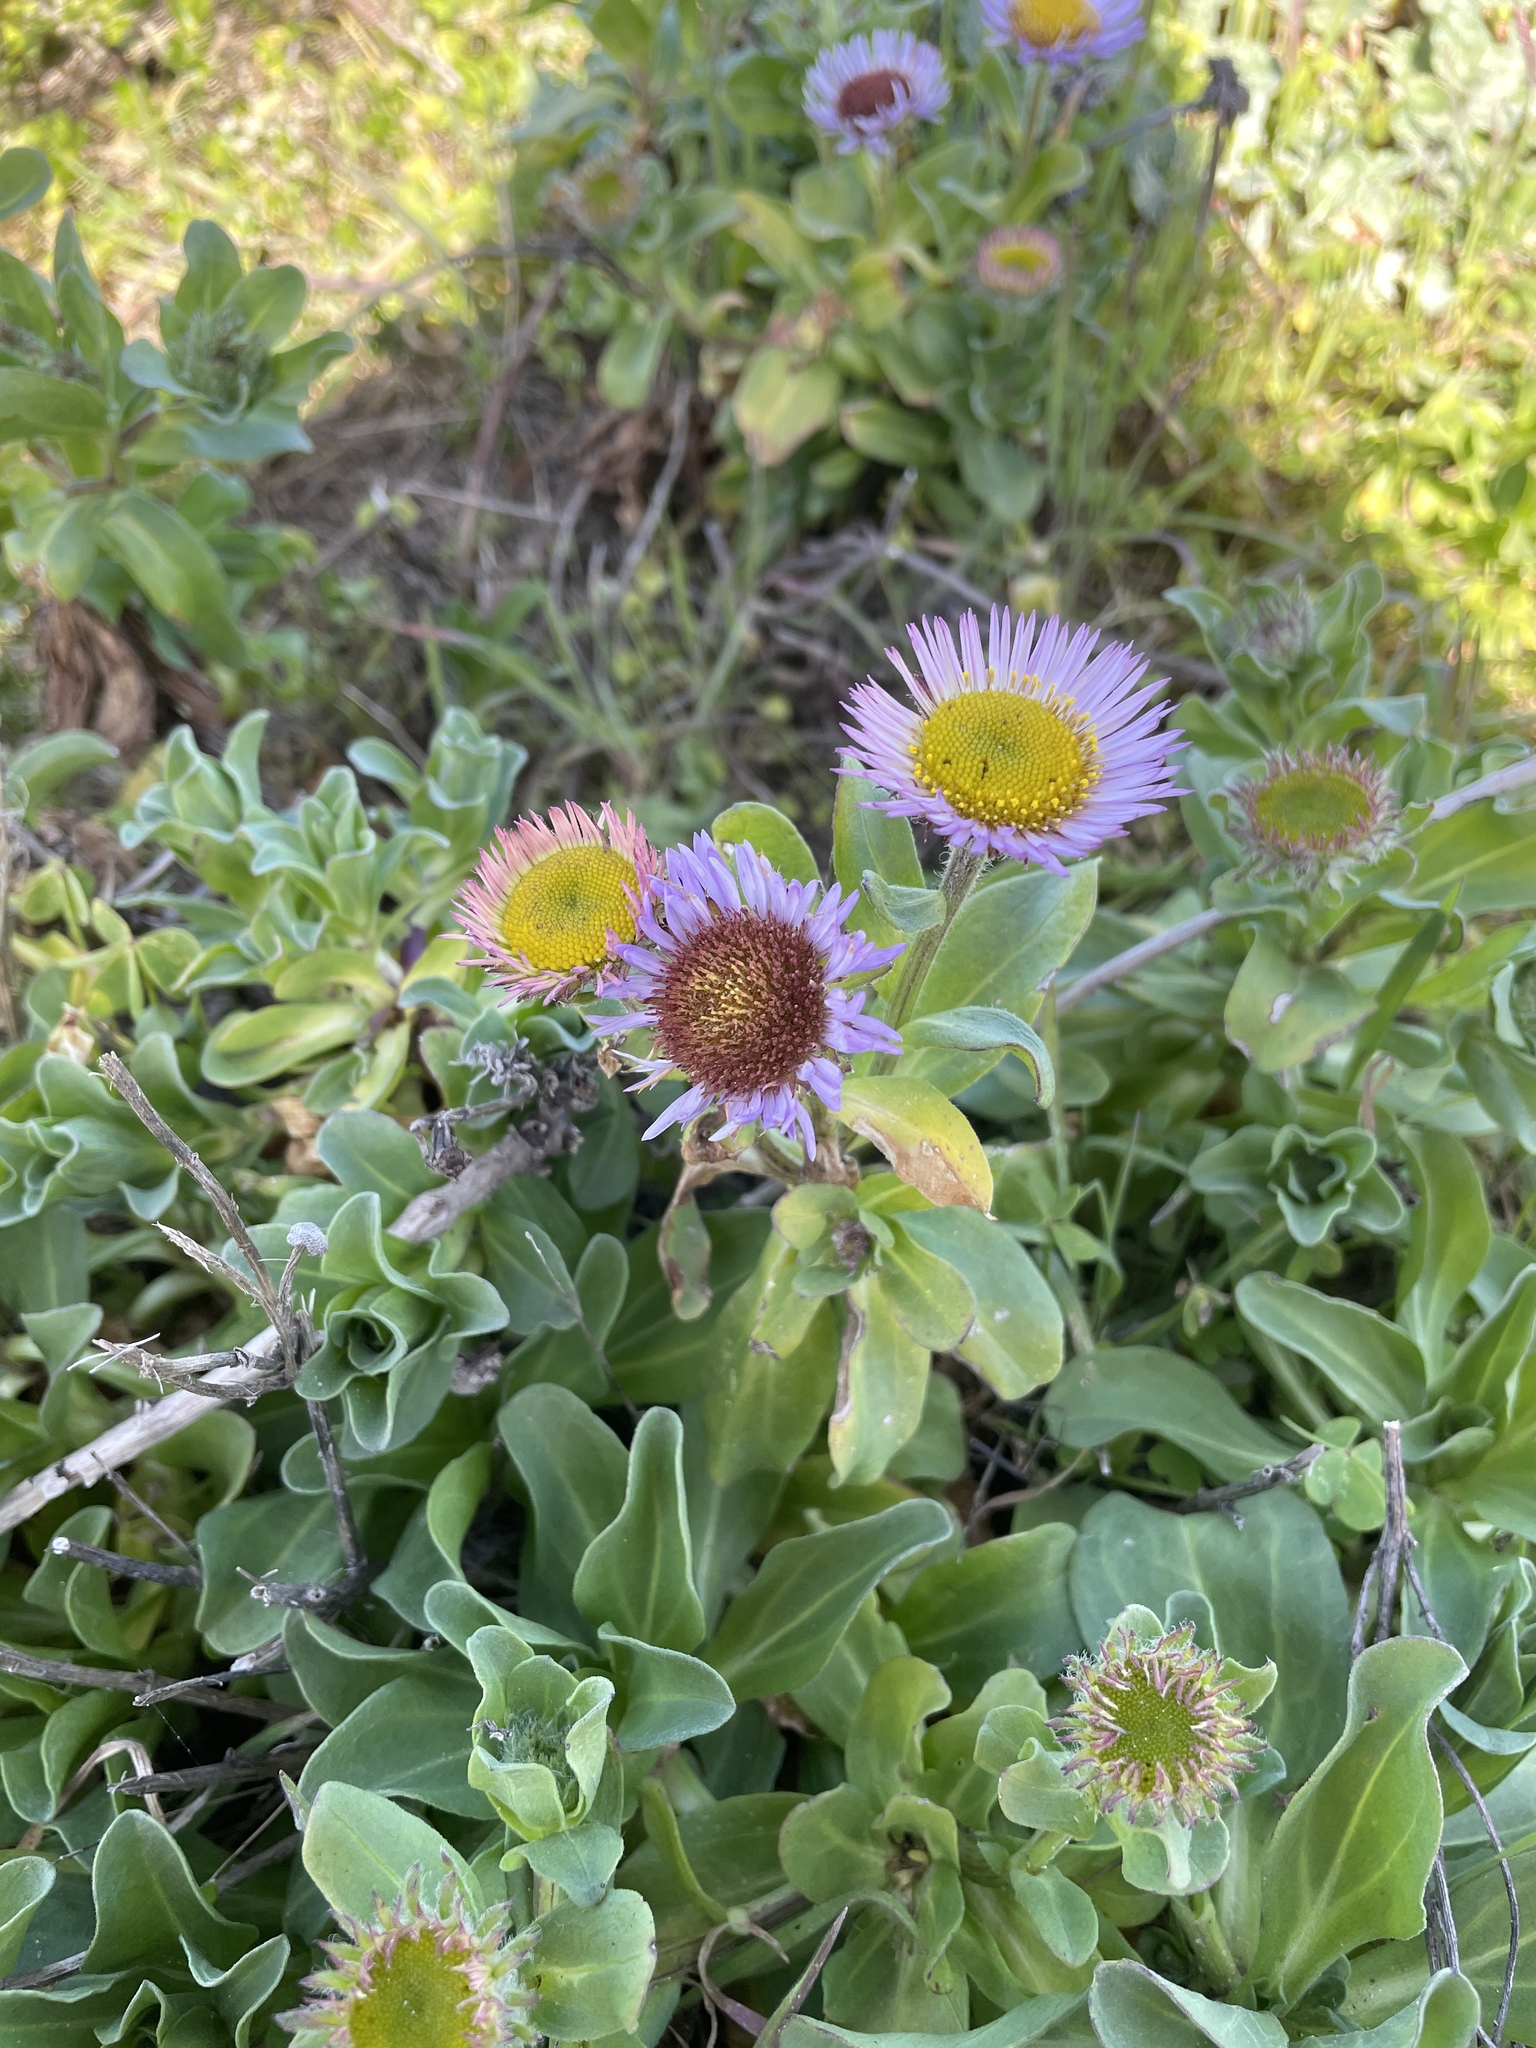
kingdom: Plantae
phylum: Tracheophyta
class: Magnoliopsida
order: Asterales
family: Asteraceae
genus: Erigeron
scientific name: Erigeron glaucus
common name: Seaside daisy
